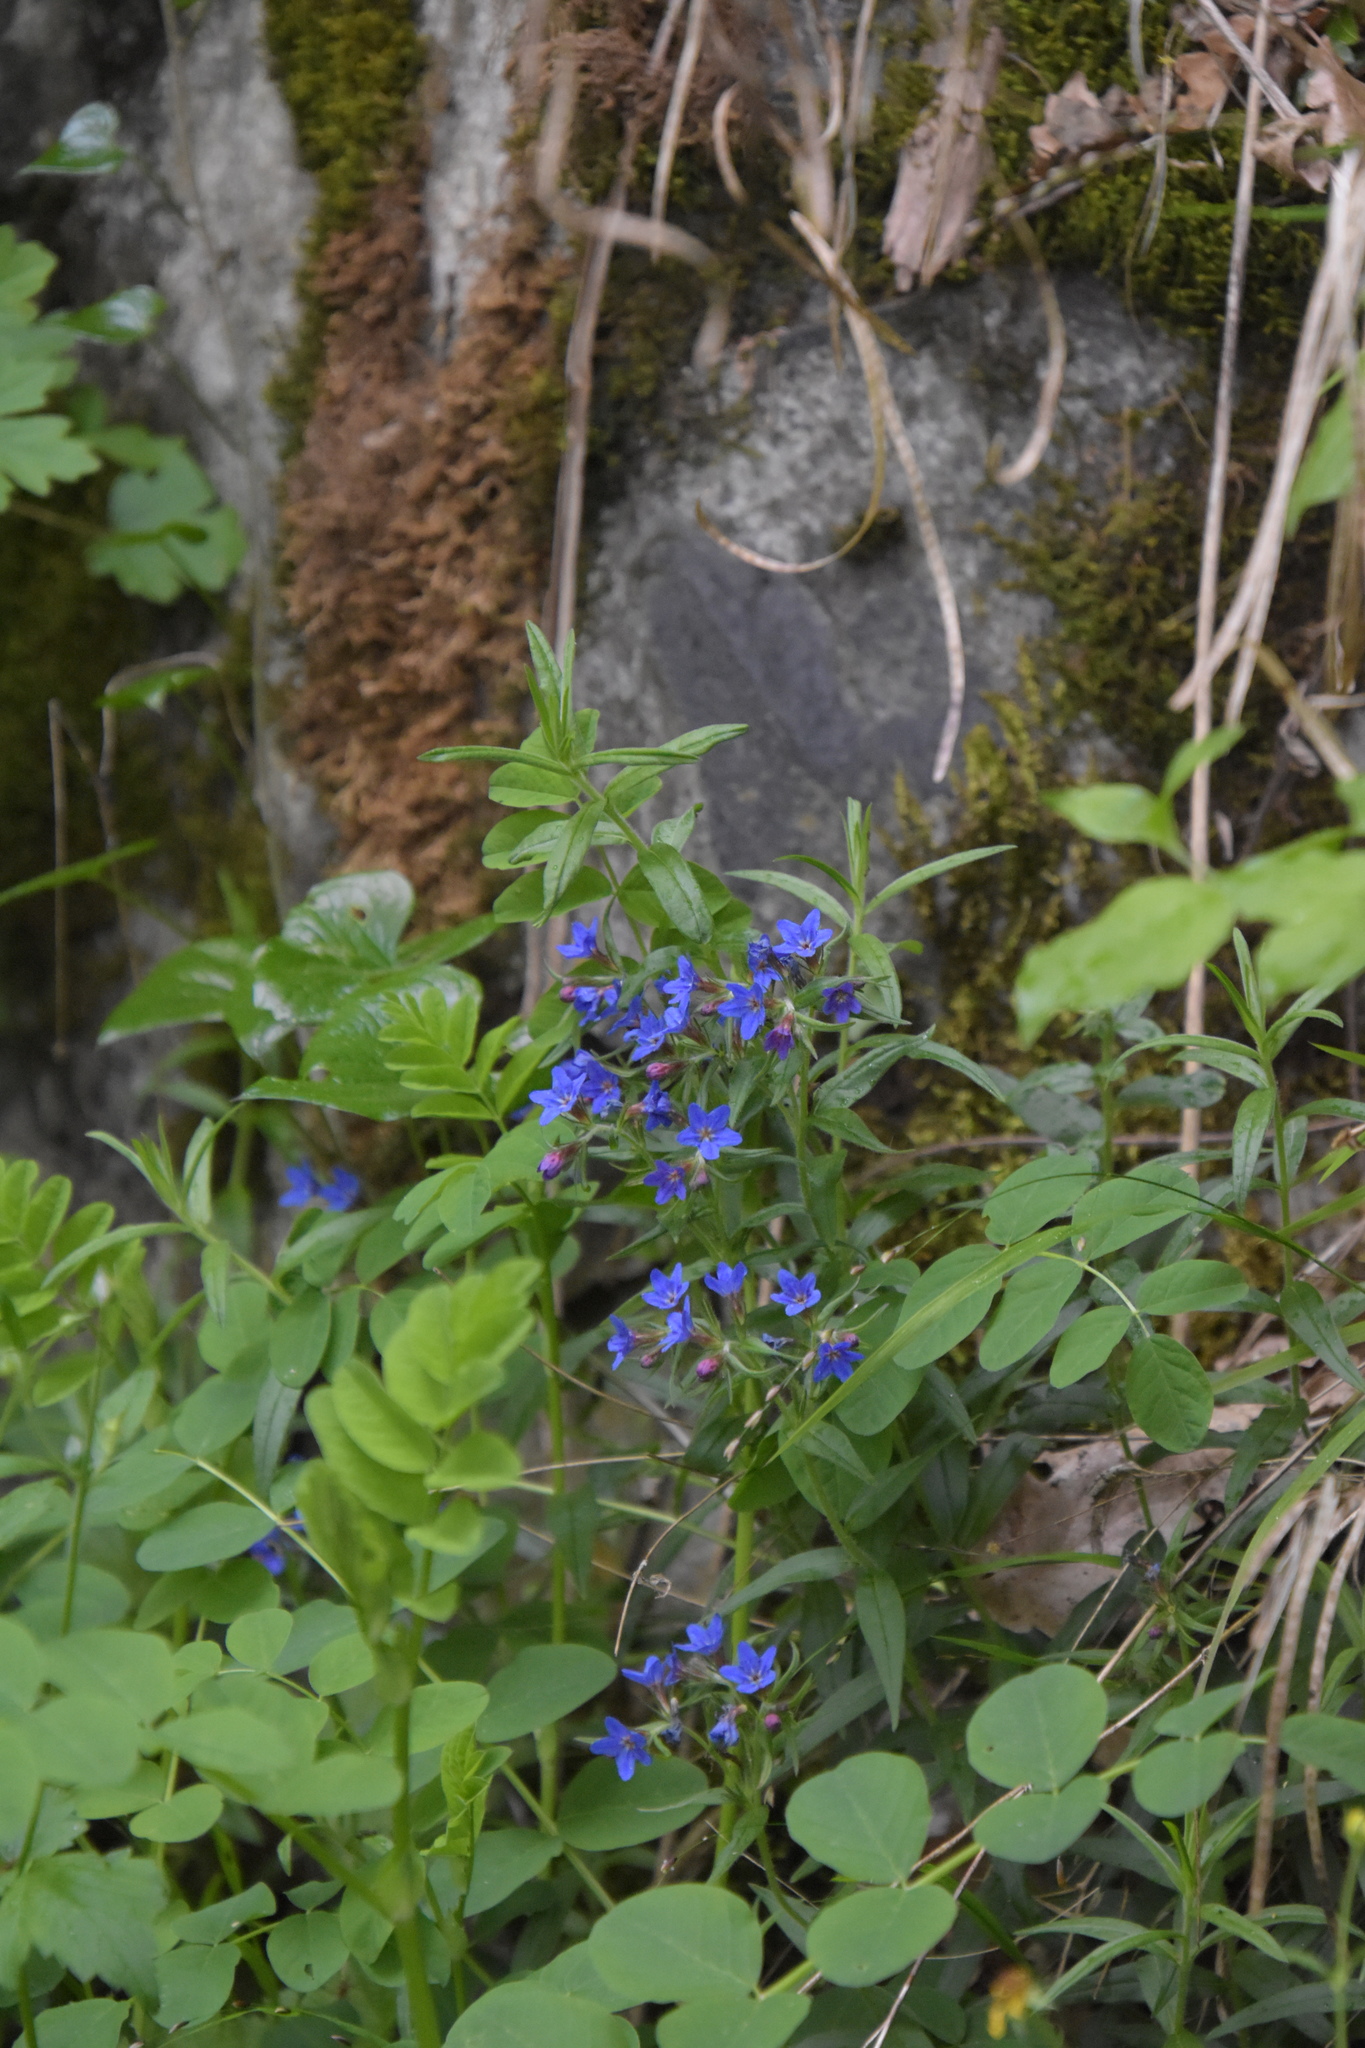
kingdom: Plantae
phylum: Tracheophyta
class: Magnoliopsida
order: Boraginales
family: Boraginaceae
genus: Aegonychon
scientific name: Aegonychon purpurocaeruleum
